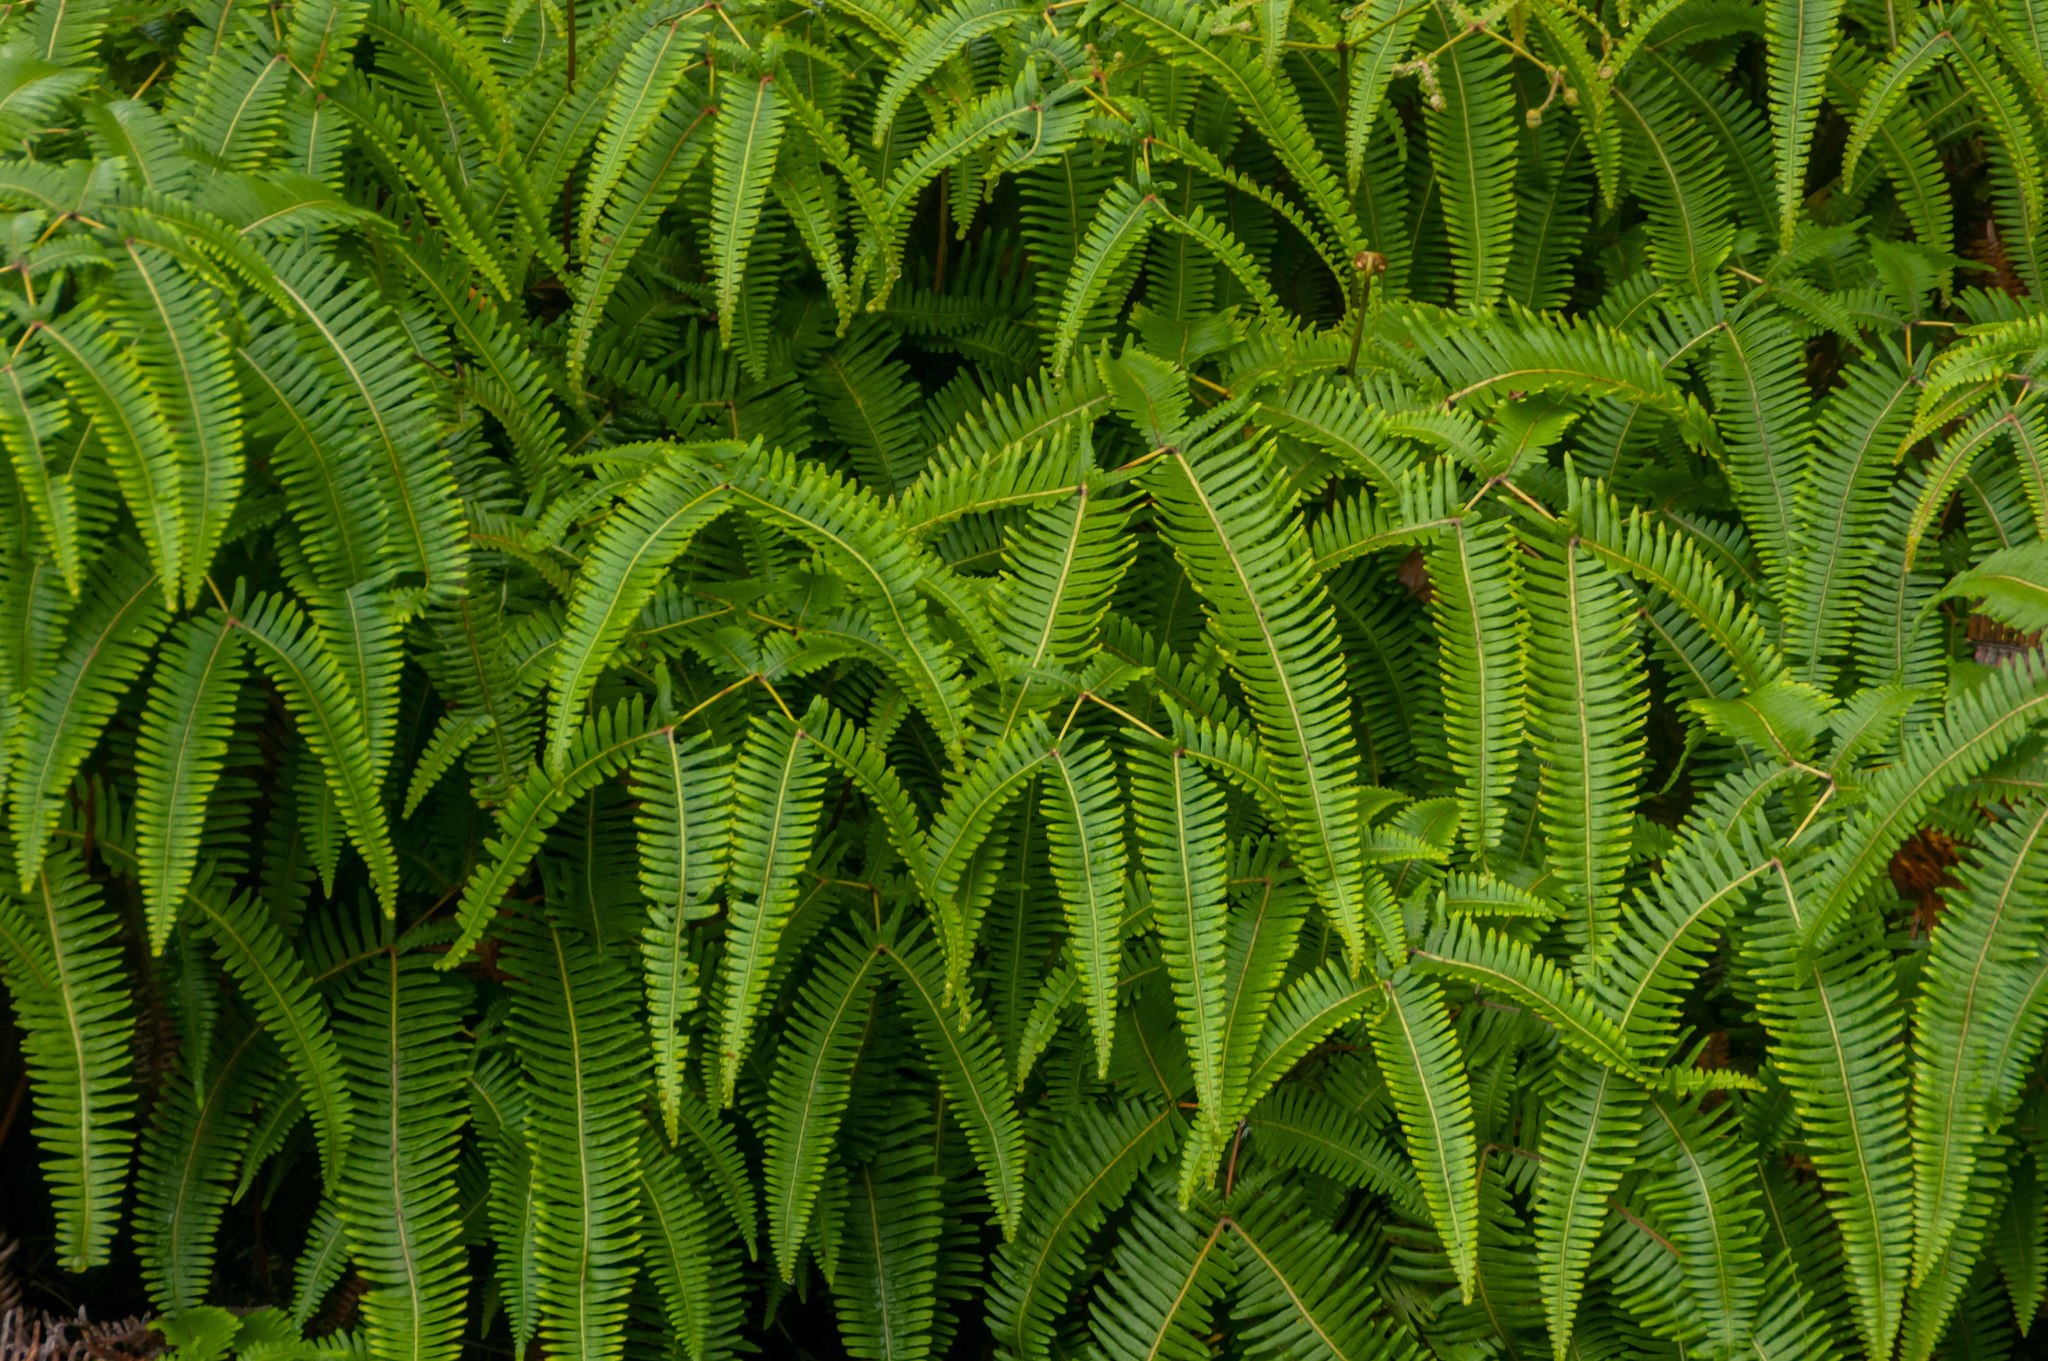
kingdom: Plantae
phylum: Tracheophyta
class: Polypodiopsida
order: Gleicheniales
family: Gleicheniaceae
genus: Dicranopteris
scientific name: Dicranopteris linearis
